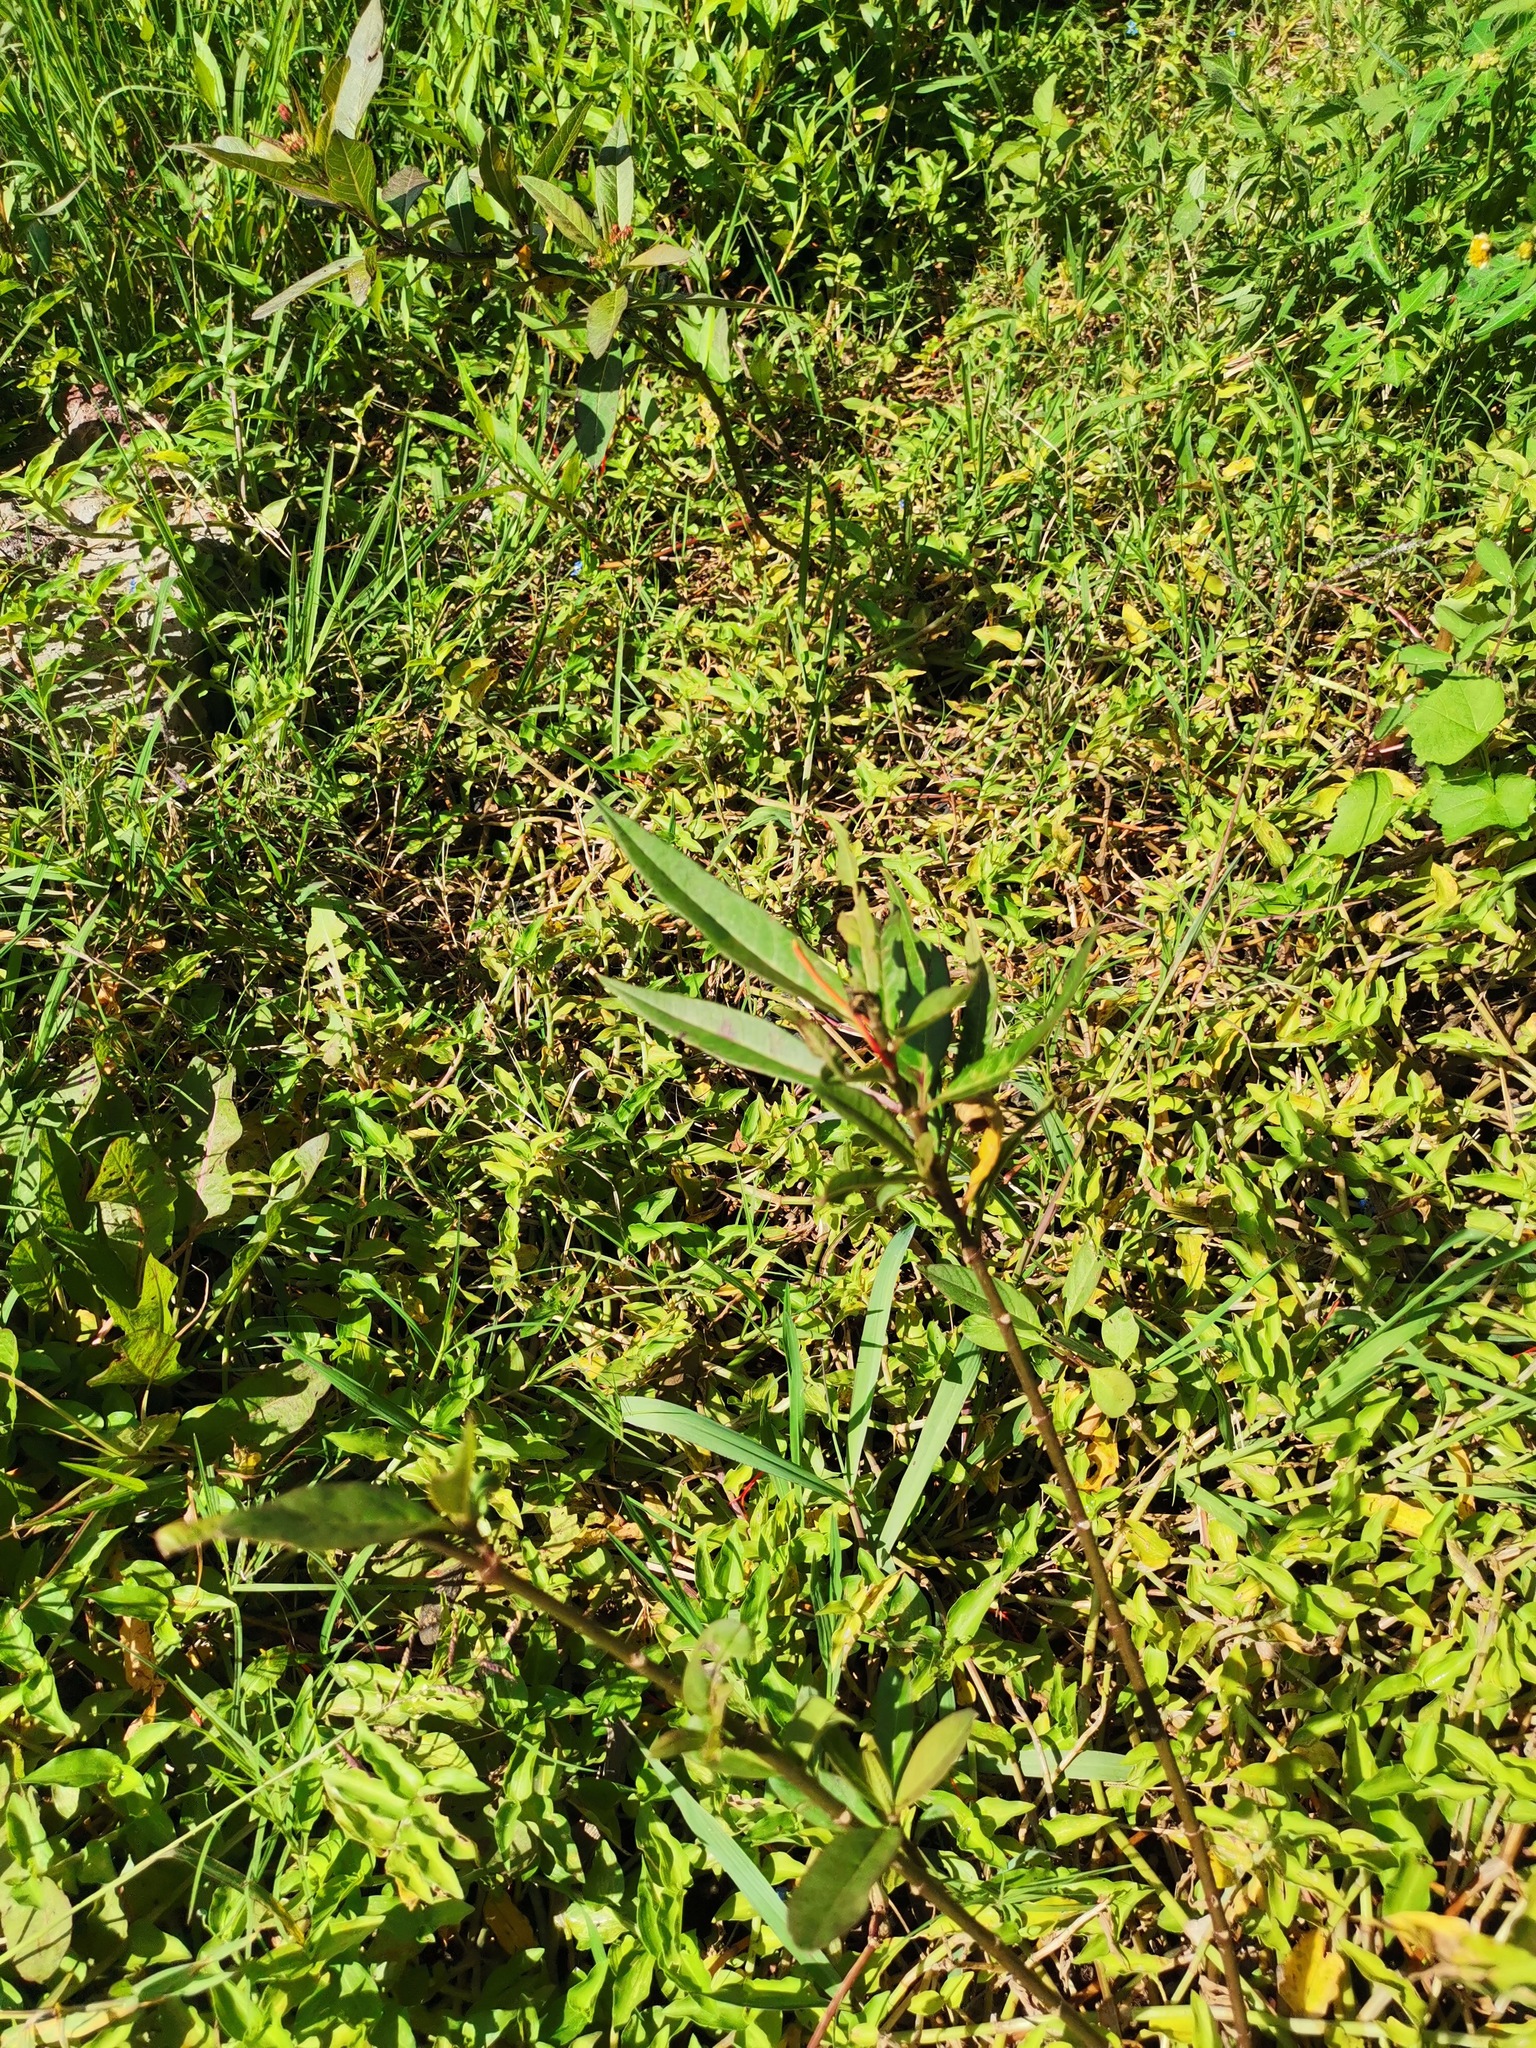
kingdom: Plantae
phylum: Tracheophyta
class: Magnoliopsida
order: Gentianales
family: Apocynaceae
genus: Asclepias
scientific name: Asclepias curassavica
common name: Bloodflower
